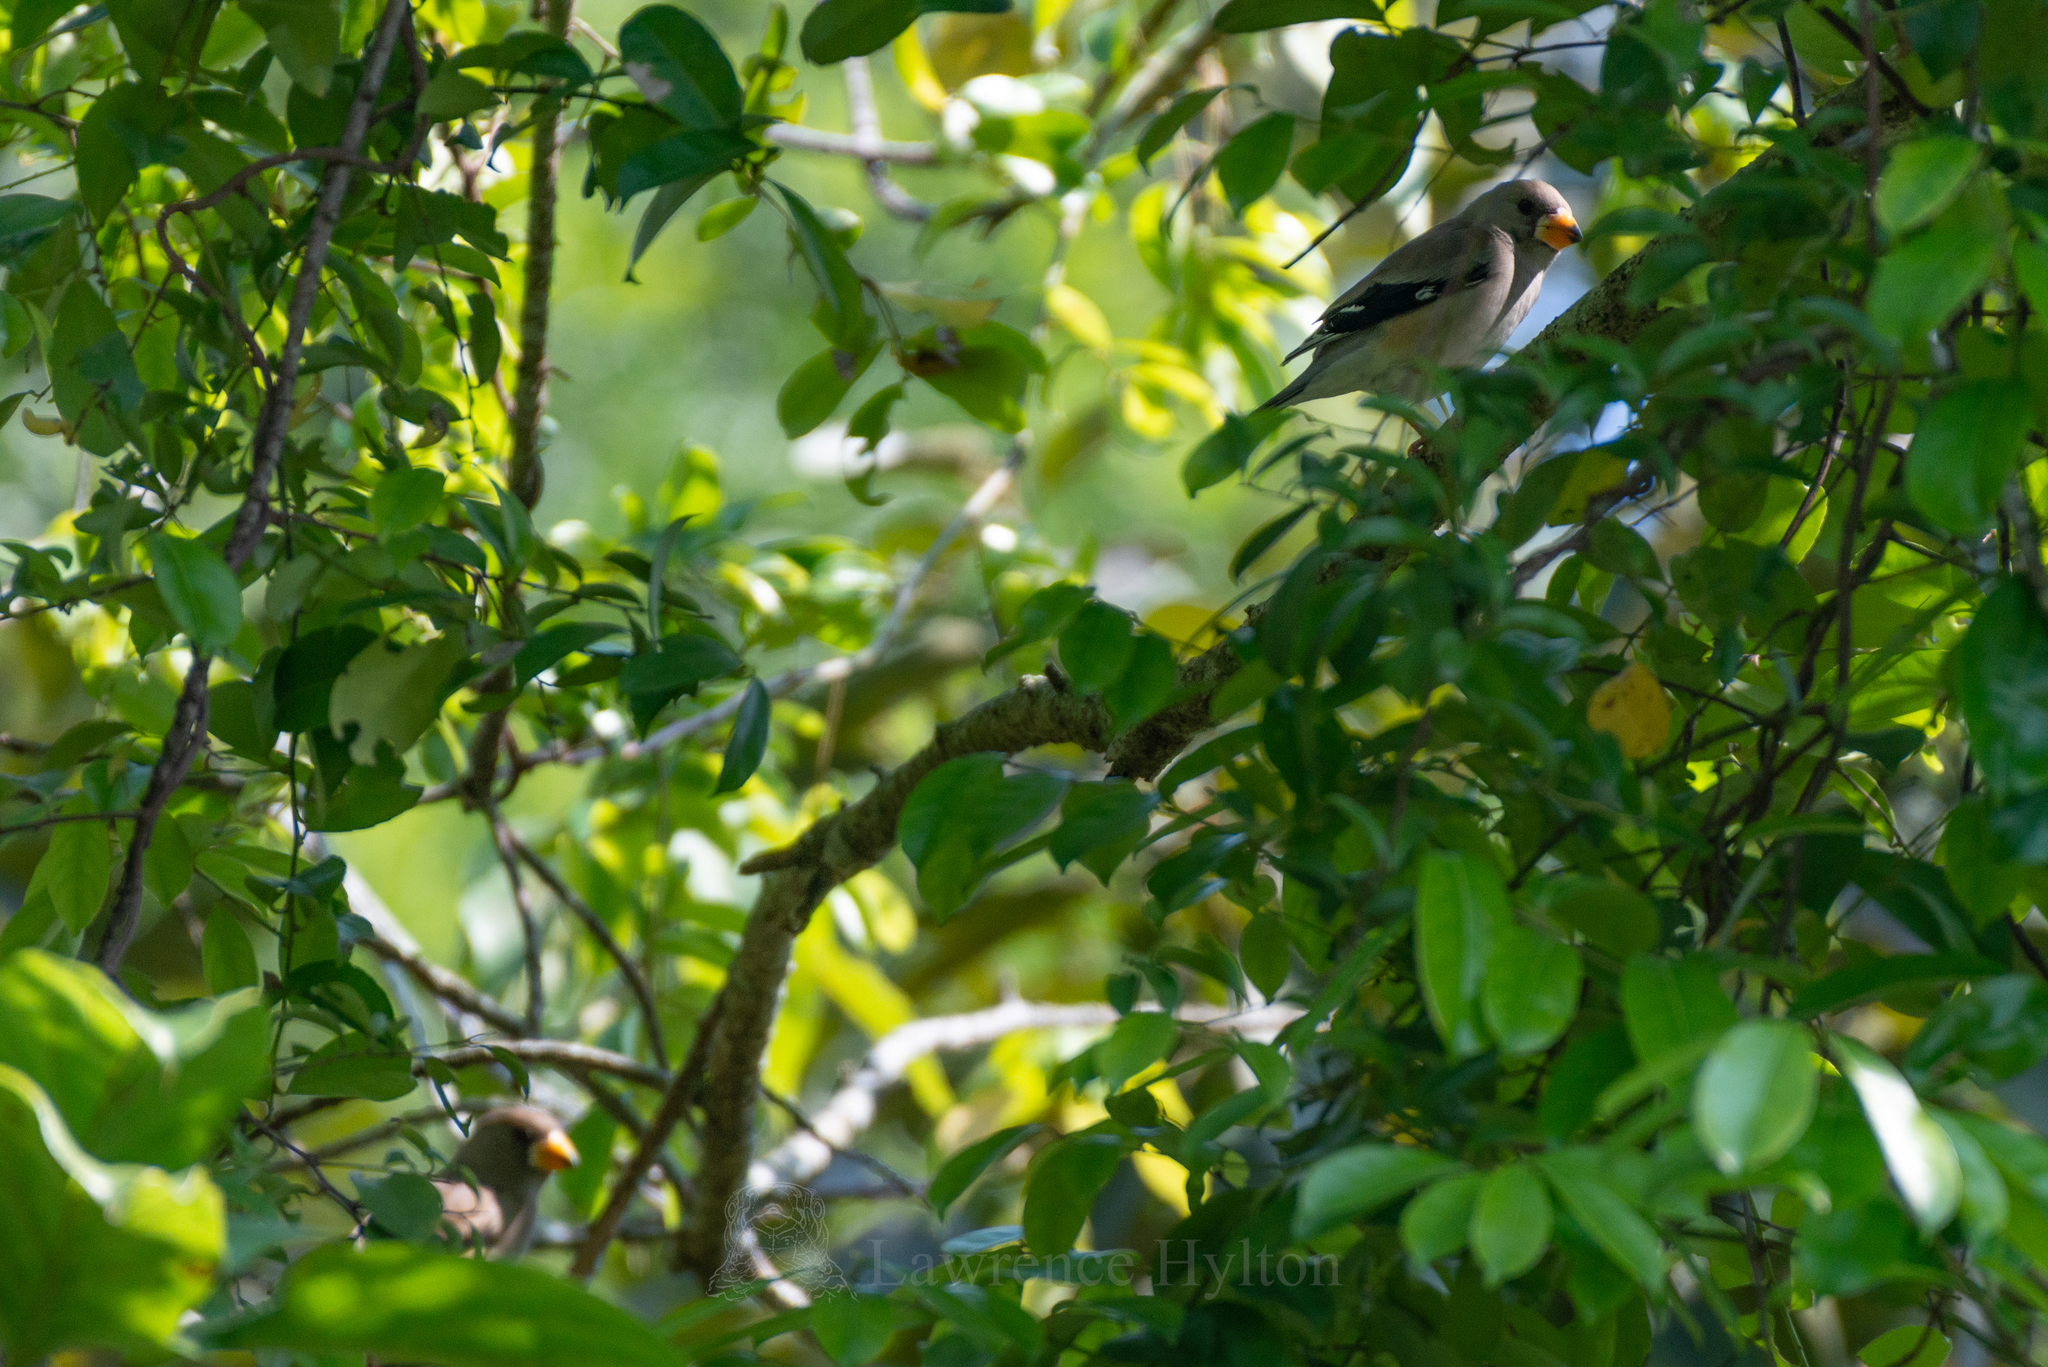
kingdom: Animalia
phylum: Chordata
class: Aves
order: Passeriformes
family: Fringillidae
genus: Eophona
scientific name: Eophona migratoria
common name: Yellow-billed grosbeak
